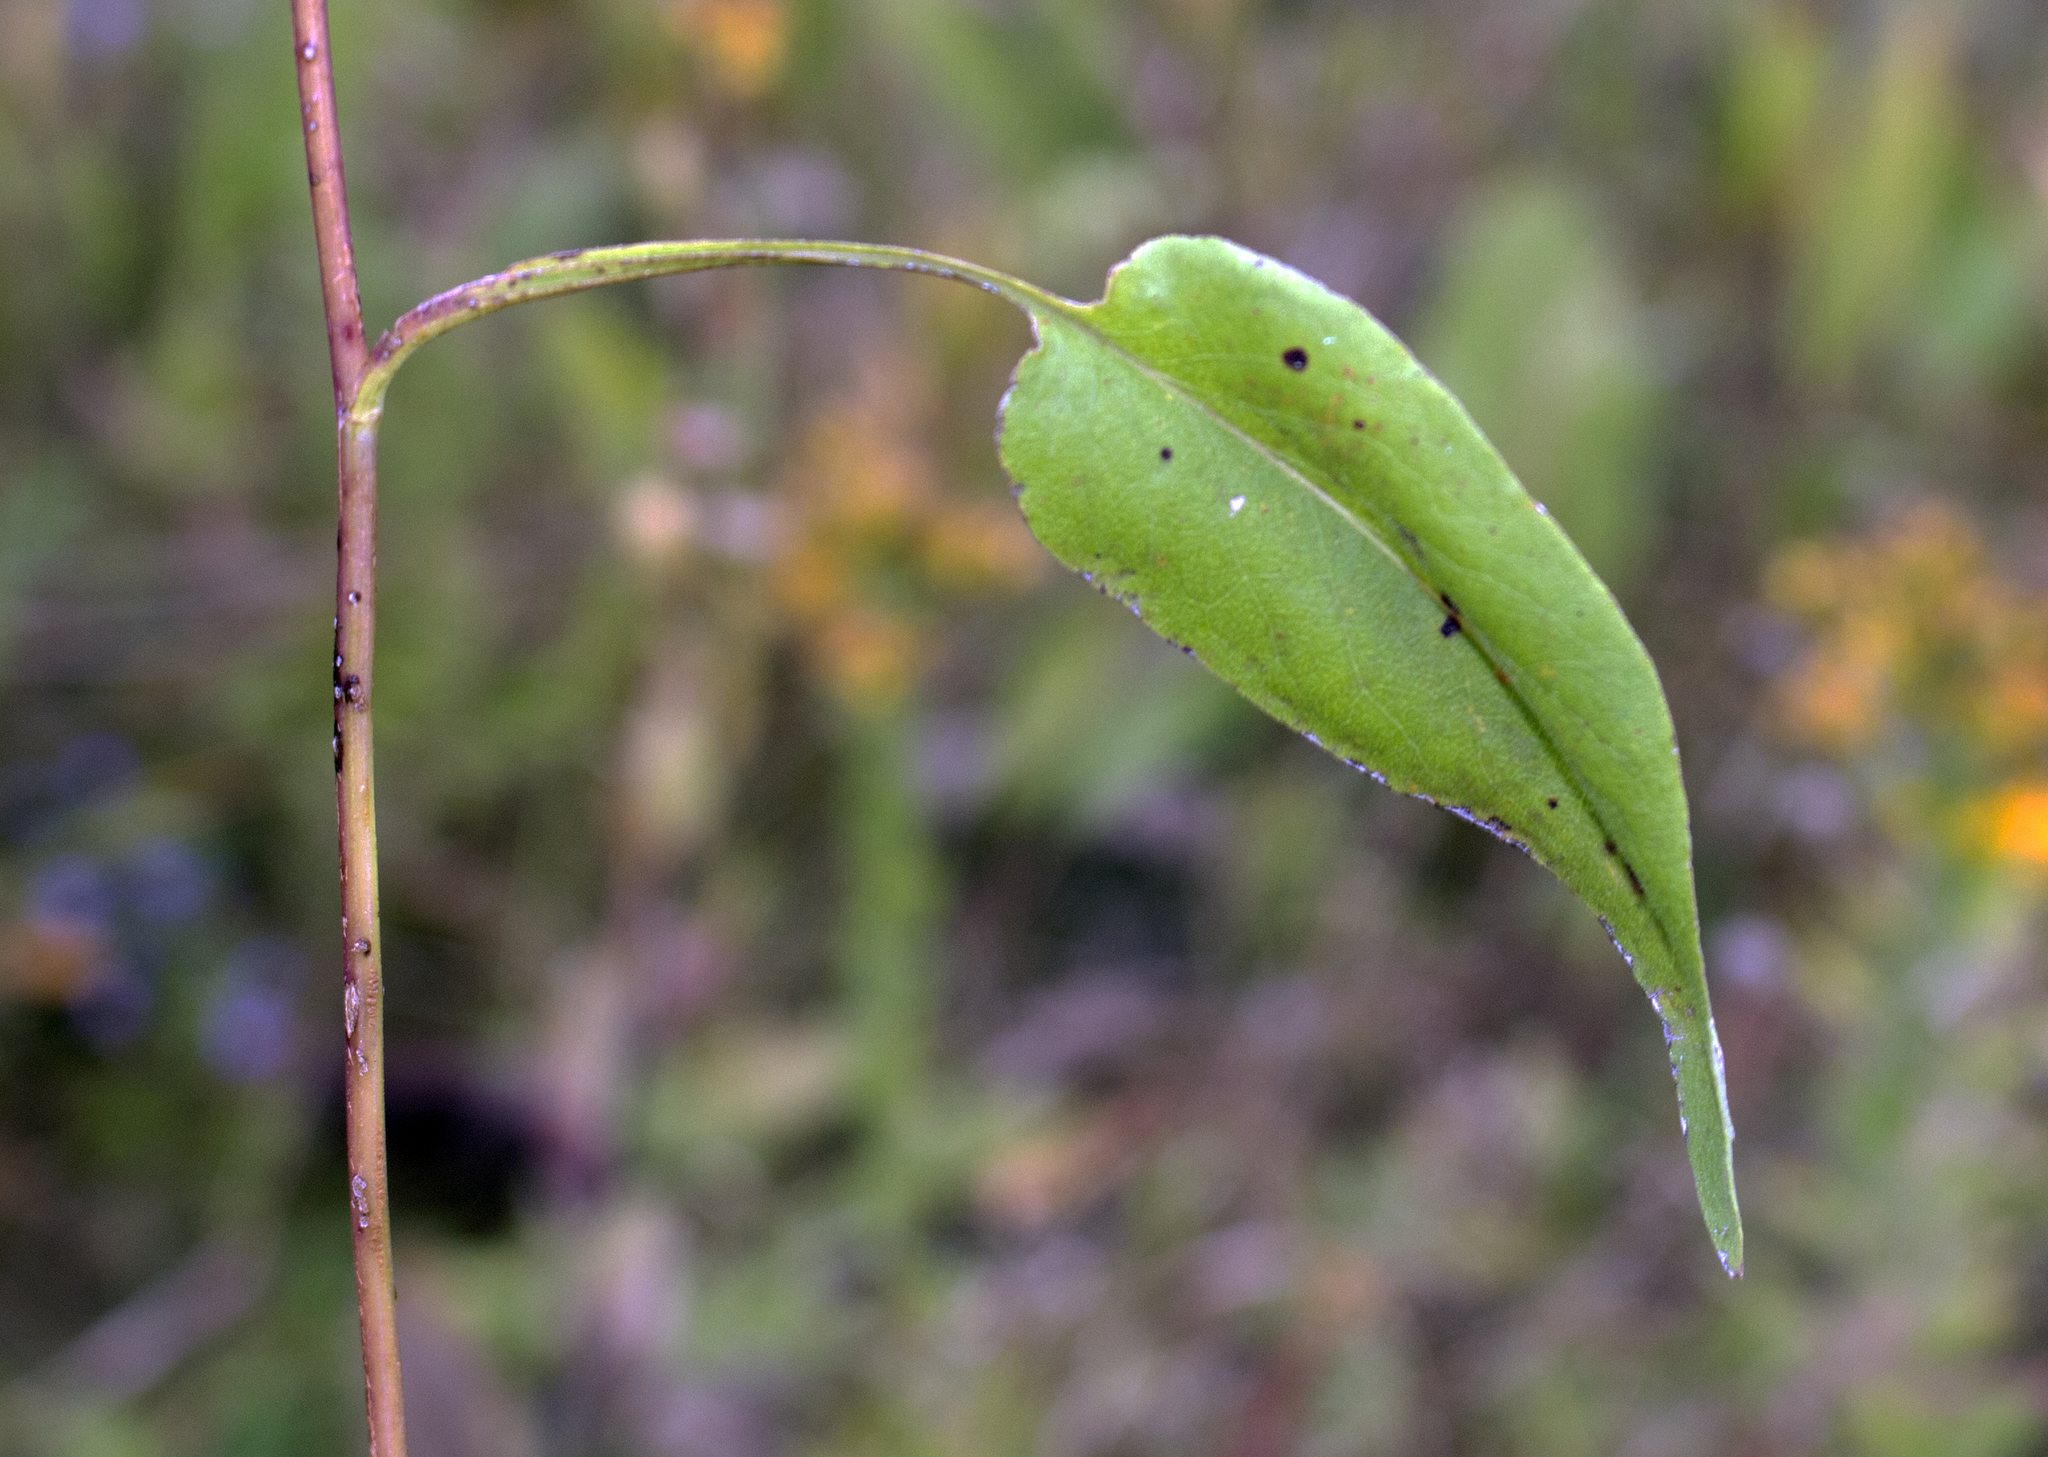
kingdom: Plantae
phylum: Tracheophyta
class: Magnoliopsida
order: Asterales
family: Asteraceae
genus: Symphyotrichum
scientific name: Symphyotrichum oolentangiense
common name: Azure aster
